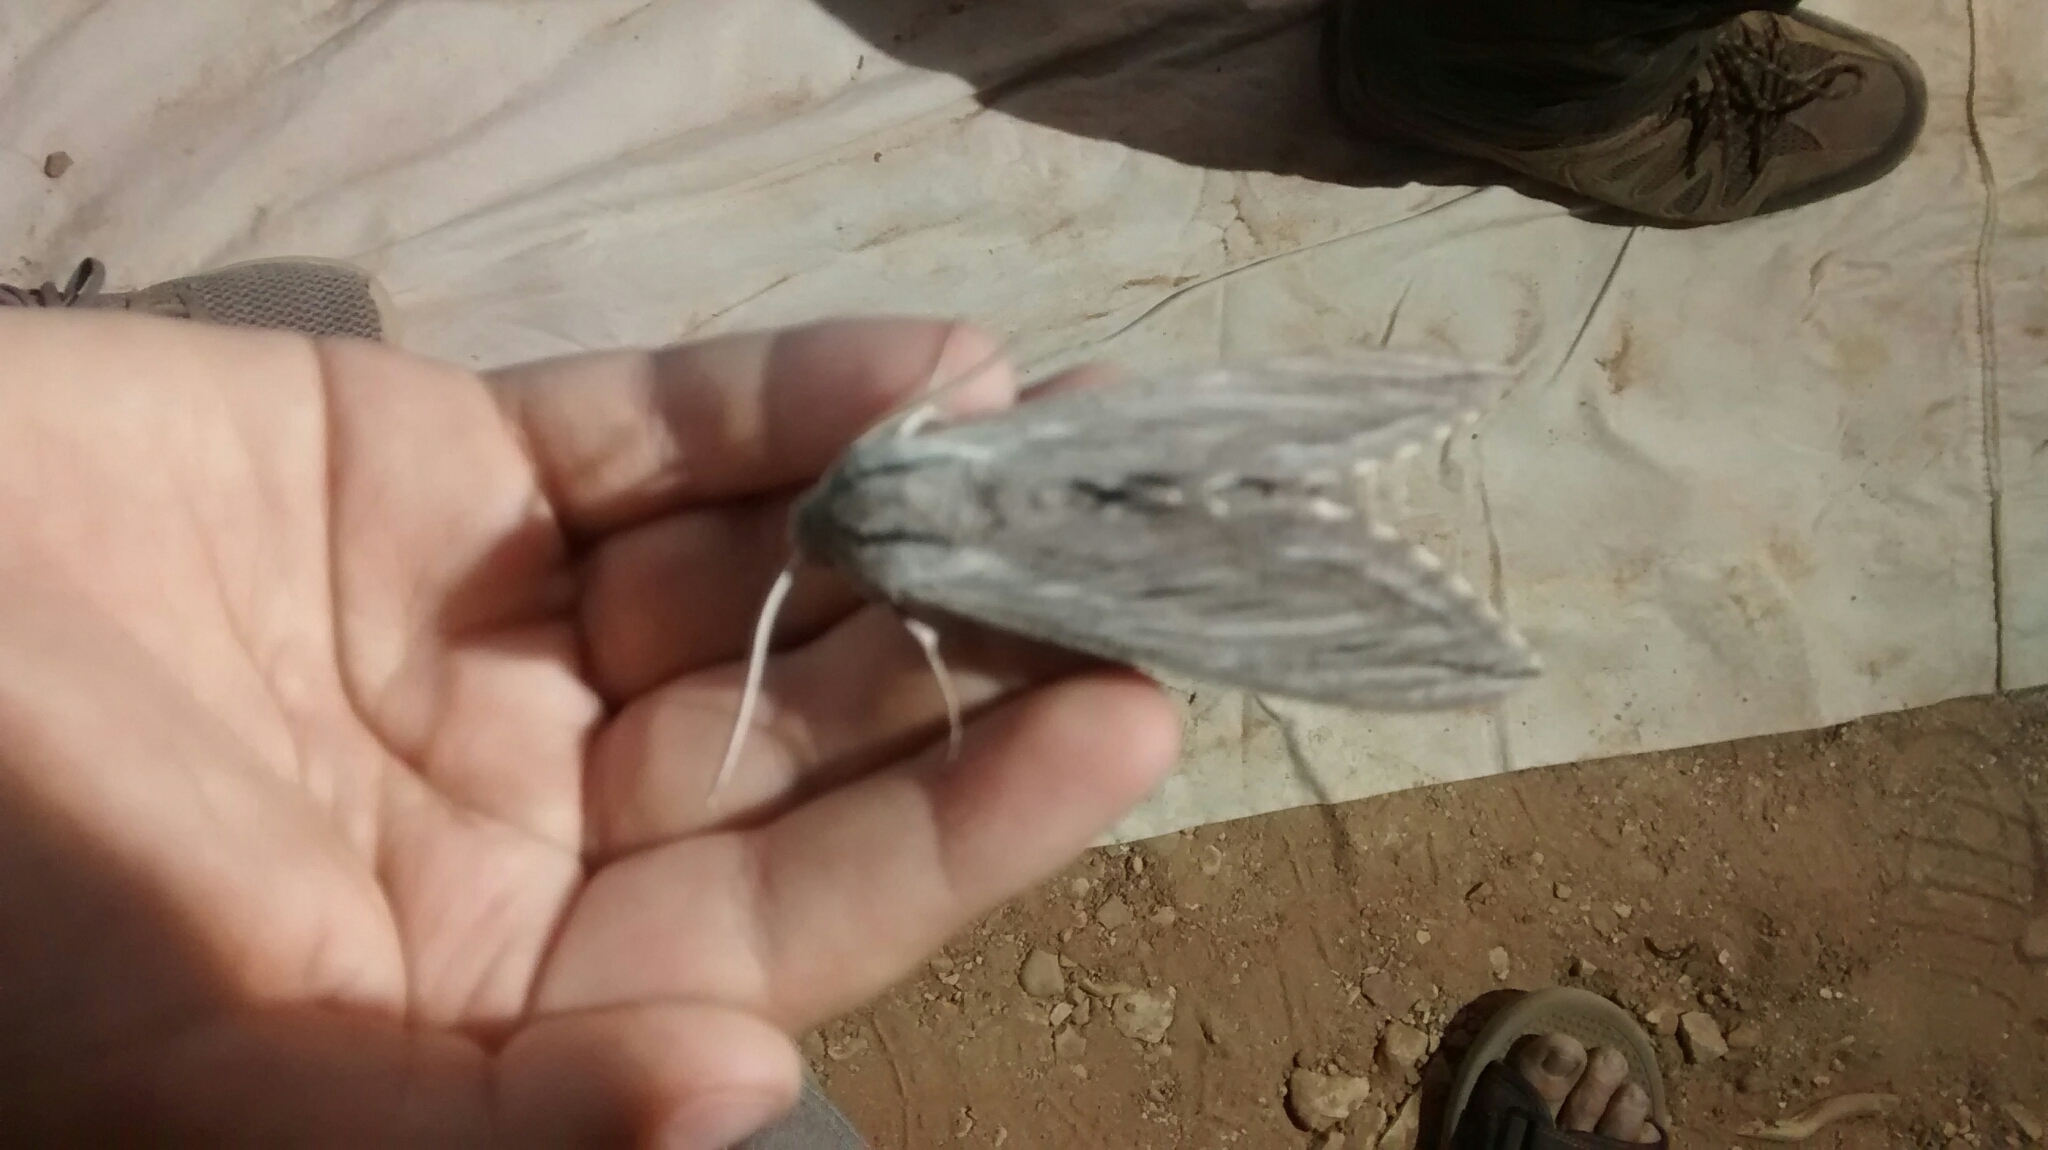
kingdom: Animalia
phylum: Arthropoda
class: Insecta
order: Lepidoptera
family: Sphingidae
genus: Sphinx
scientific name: Sphinx chersis
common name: Great ash sphinx
